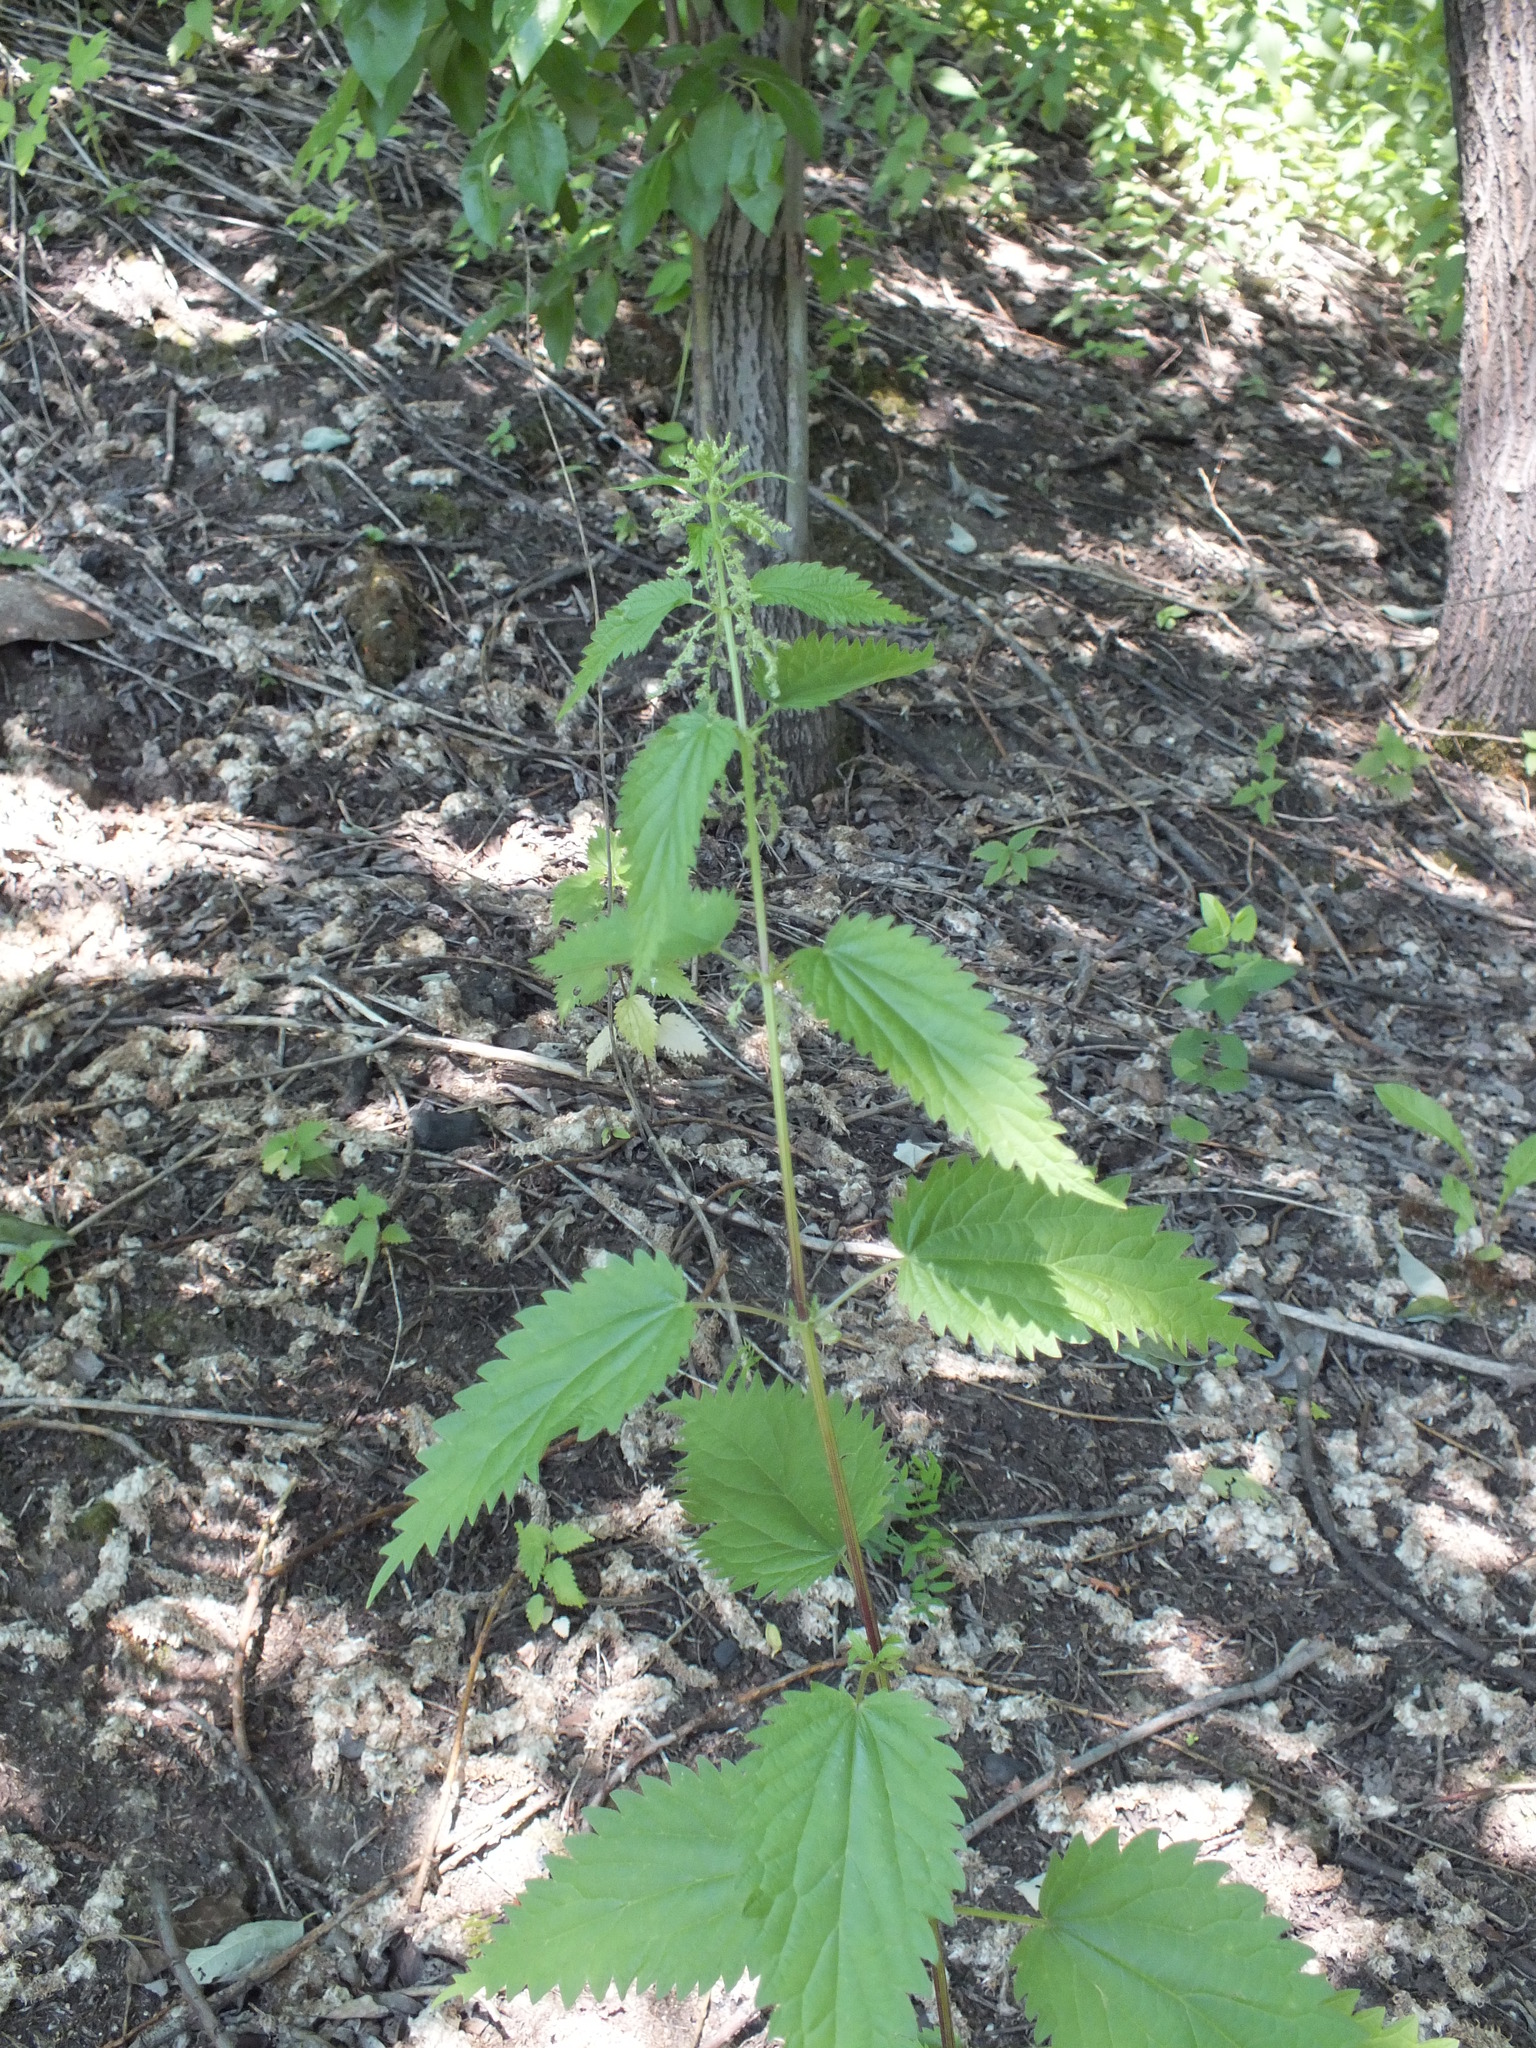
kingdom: Plantae
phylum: Tracheophyta
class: Magnoliopsida
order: Rosales
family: Urticaceae
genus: Urtica
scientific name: Urtica dioica
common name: Common nettle
